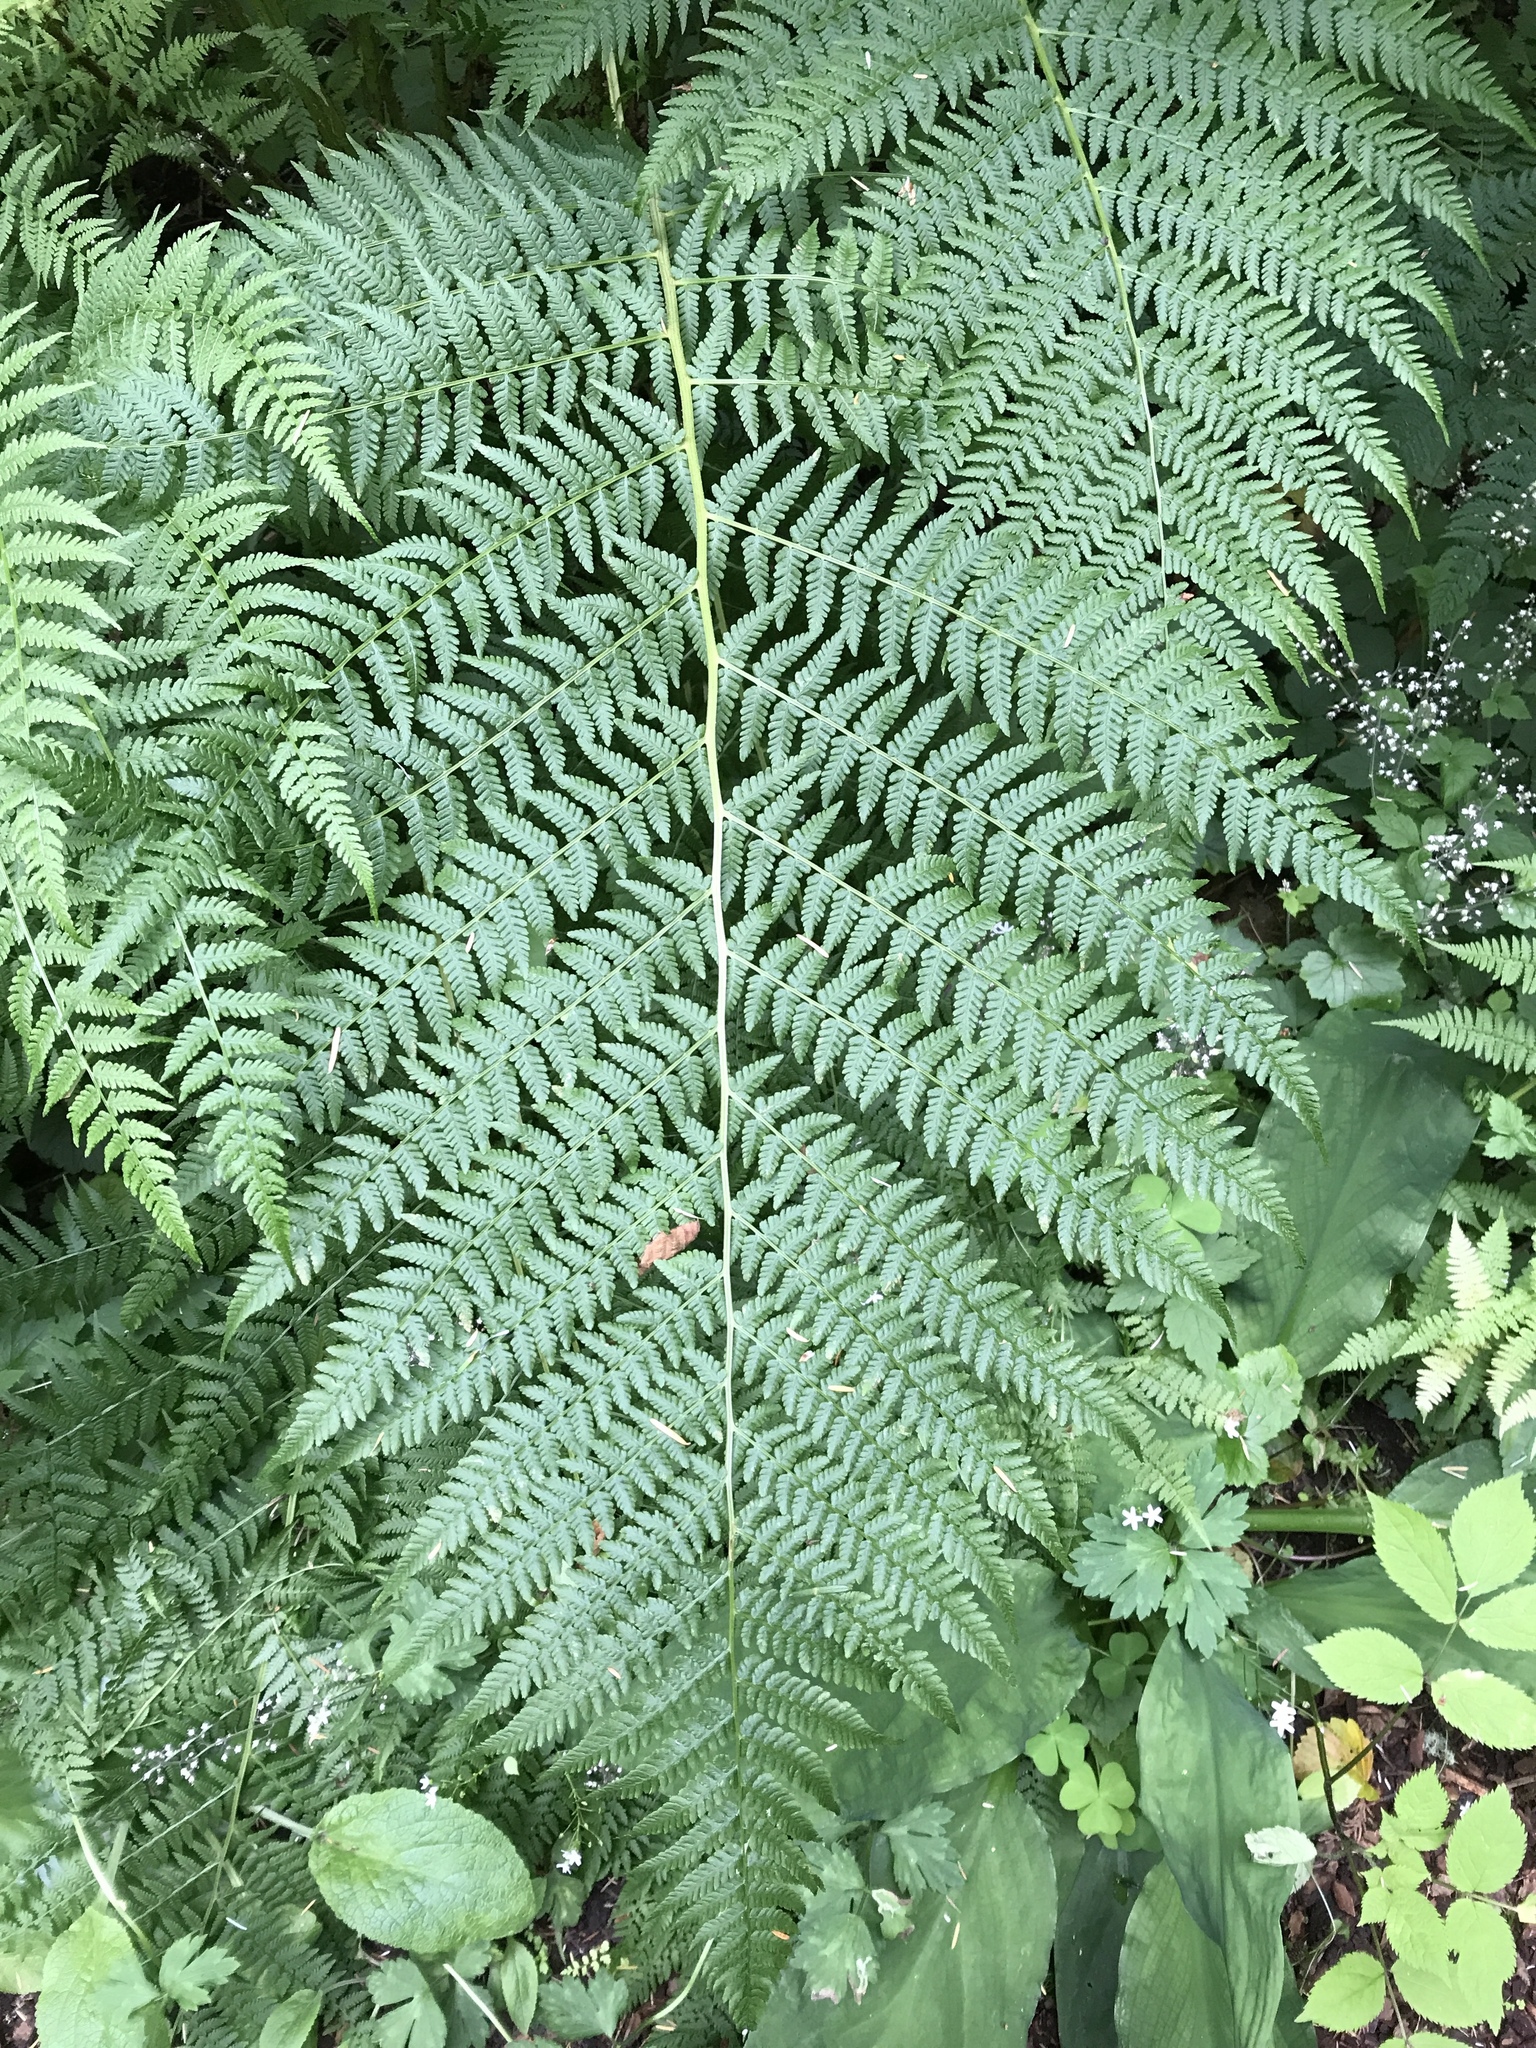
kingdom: Plantae
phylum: Tracheophyta
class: Polypodiopsida
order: Polypodiales
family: Athyriaceae
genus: Athyrium
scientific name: Athyrium cyclosorum
